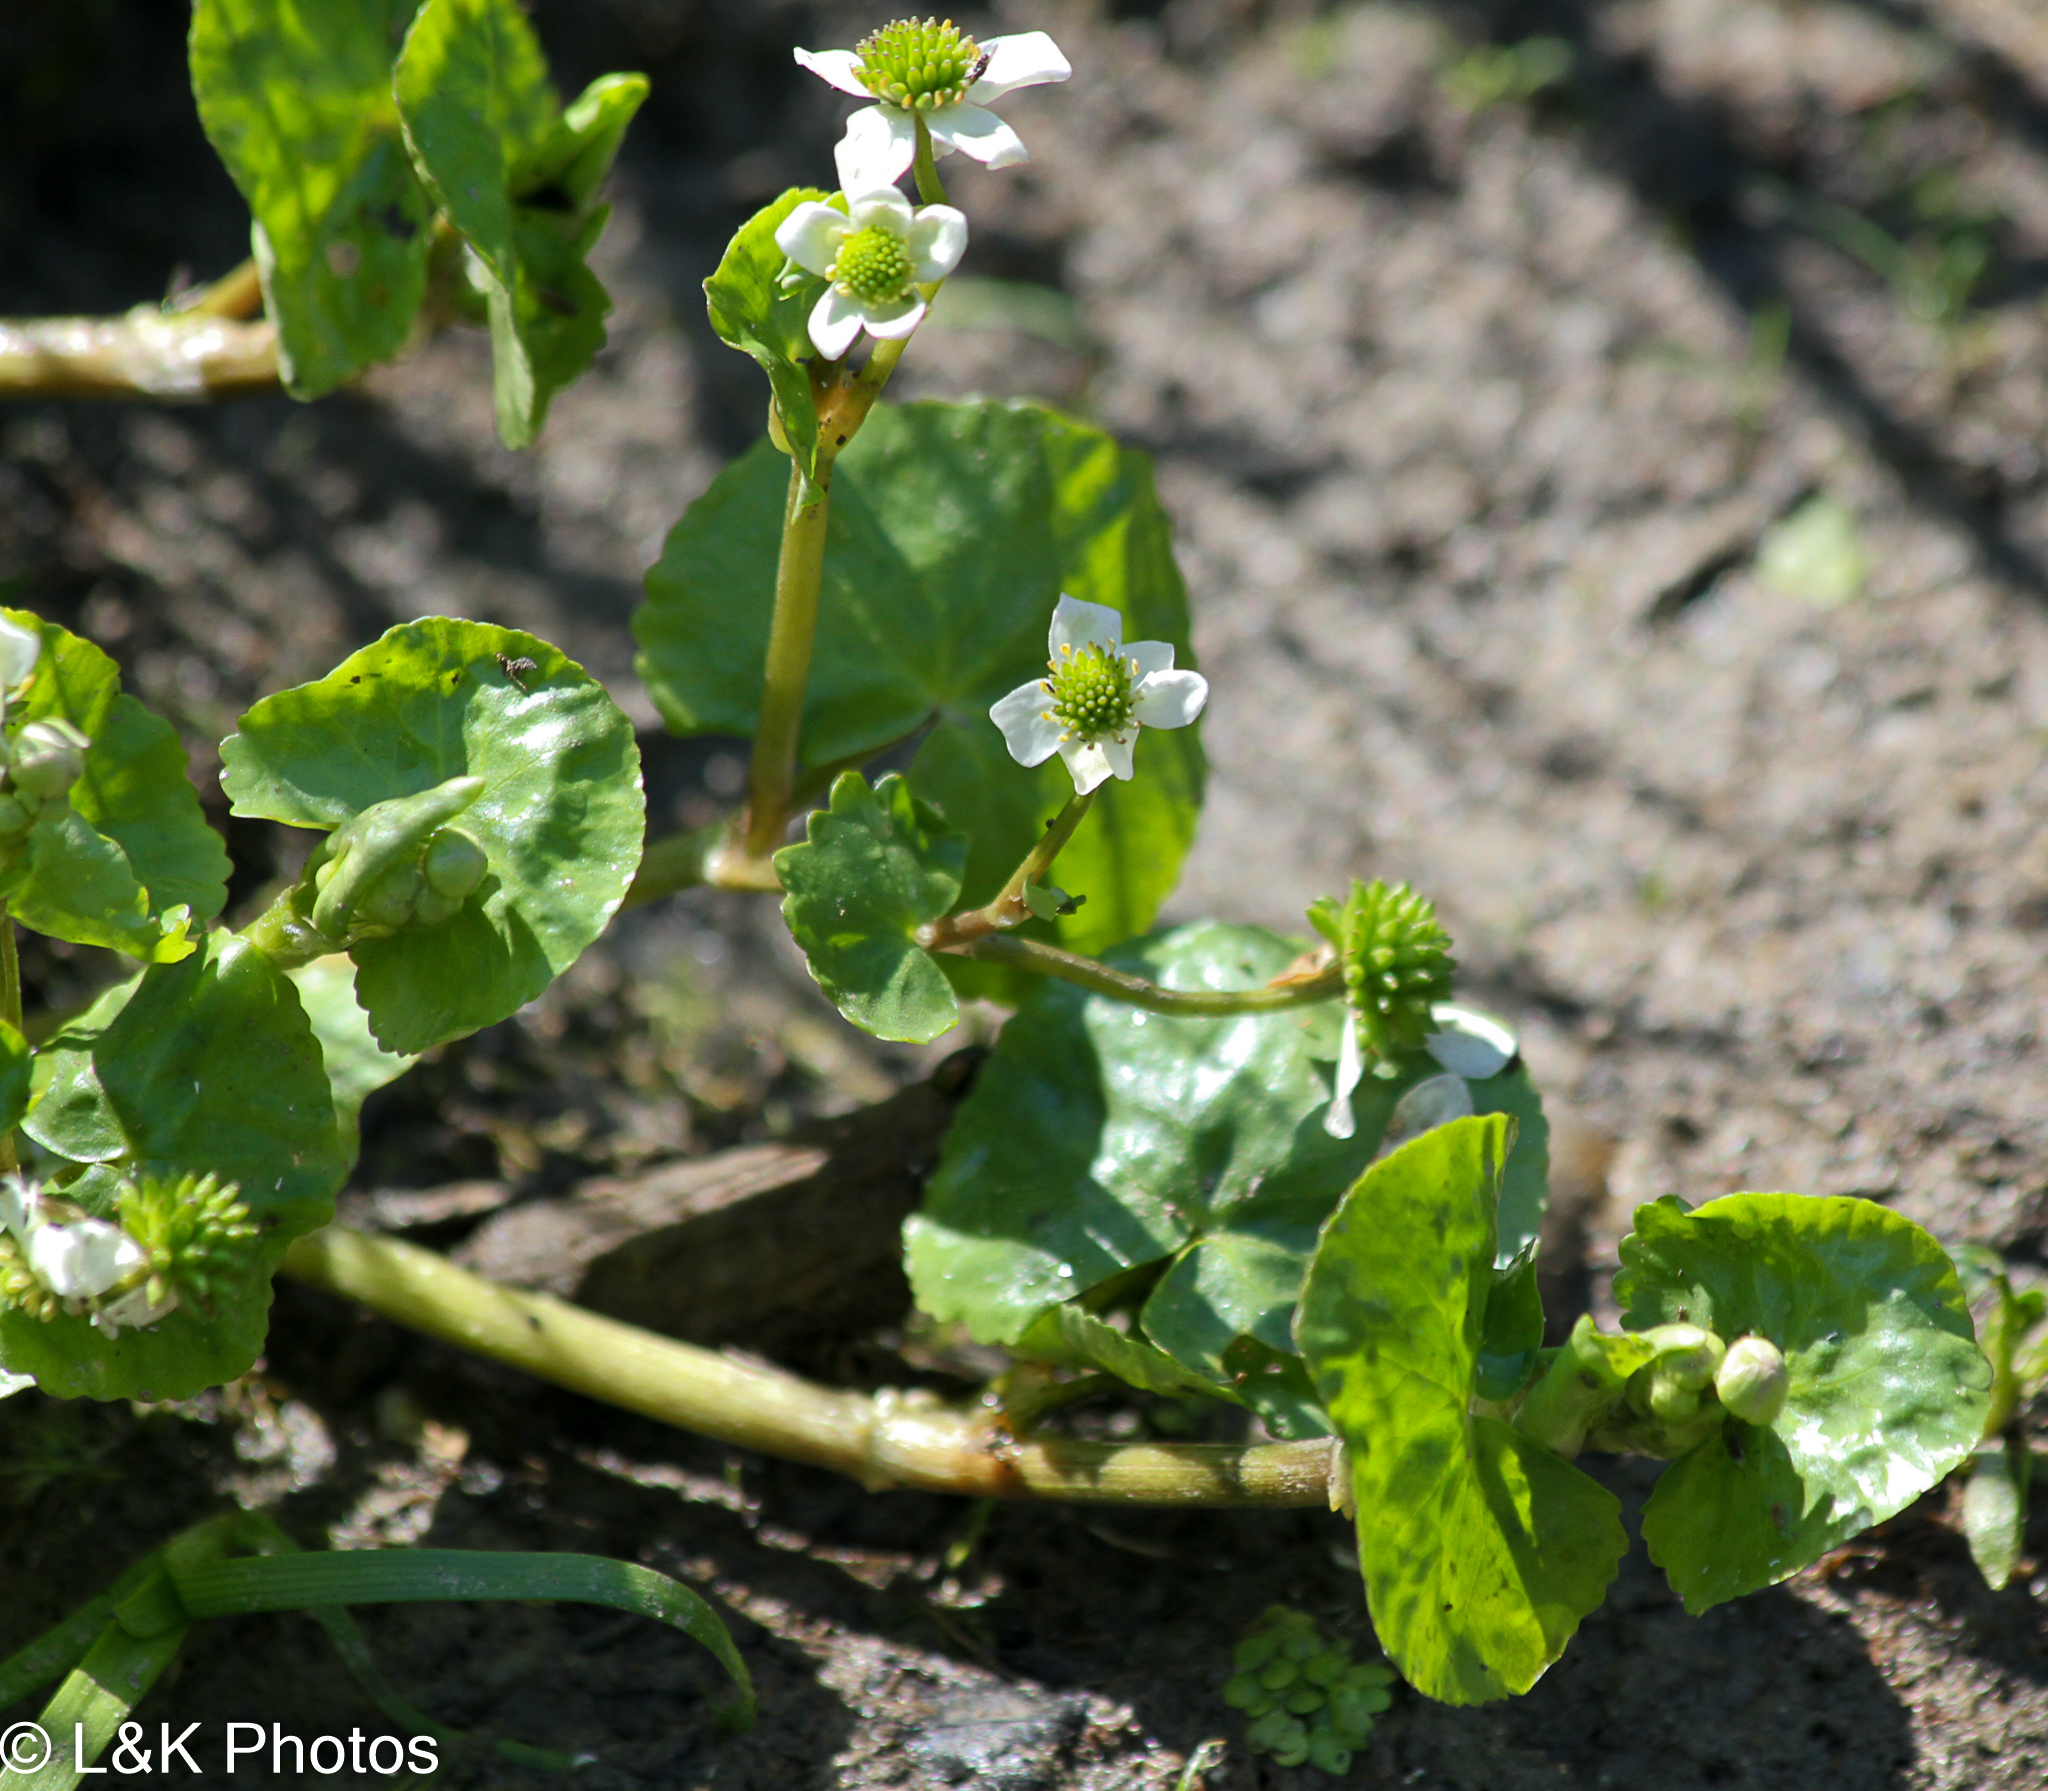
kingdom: Plantae
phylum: Tracheophyta
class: Magnoliopsida
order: Ranunculales
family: Ranunculaceae
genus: Caltha
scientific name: Caltha natans
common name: Floating marsh marigold
